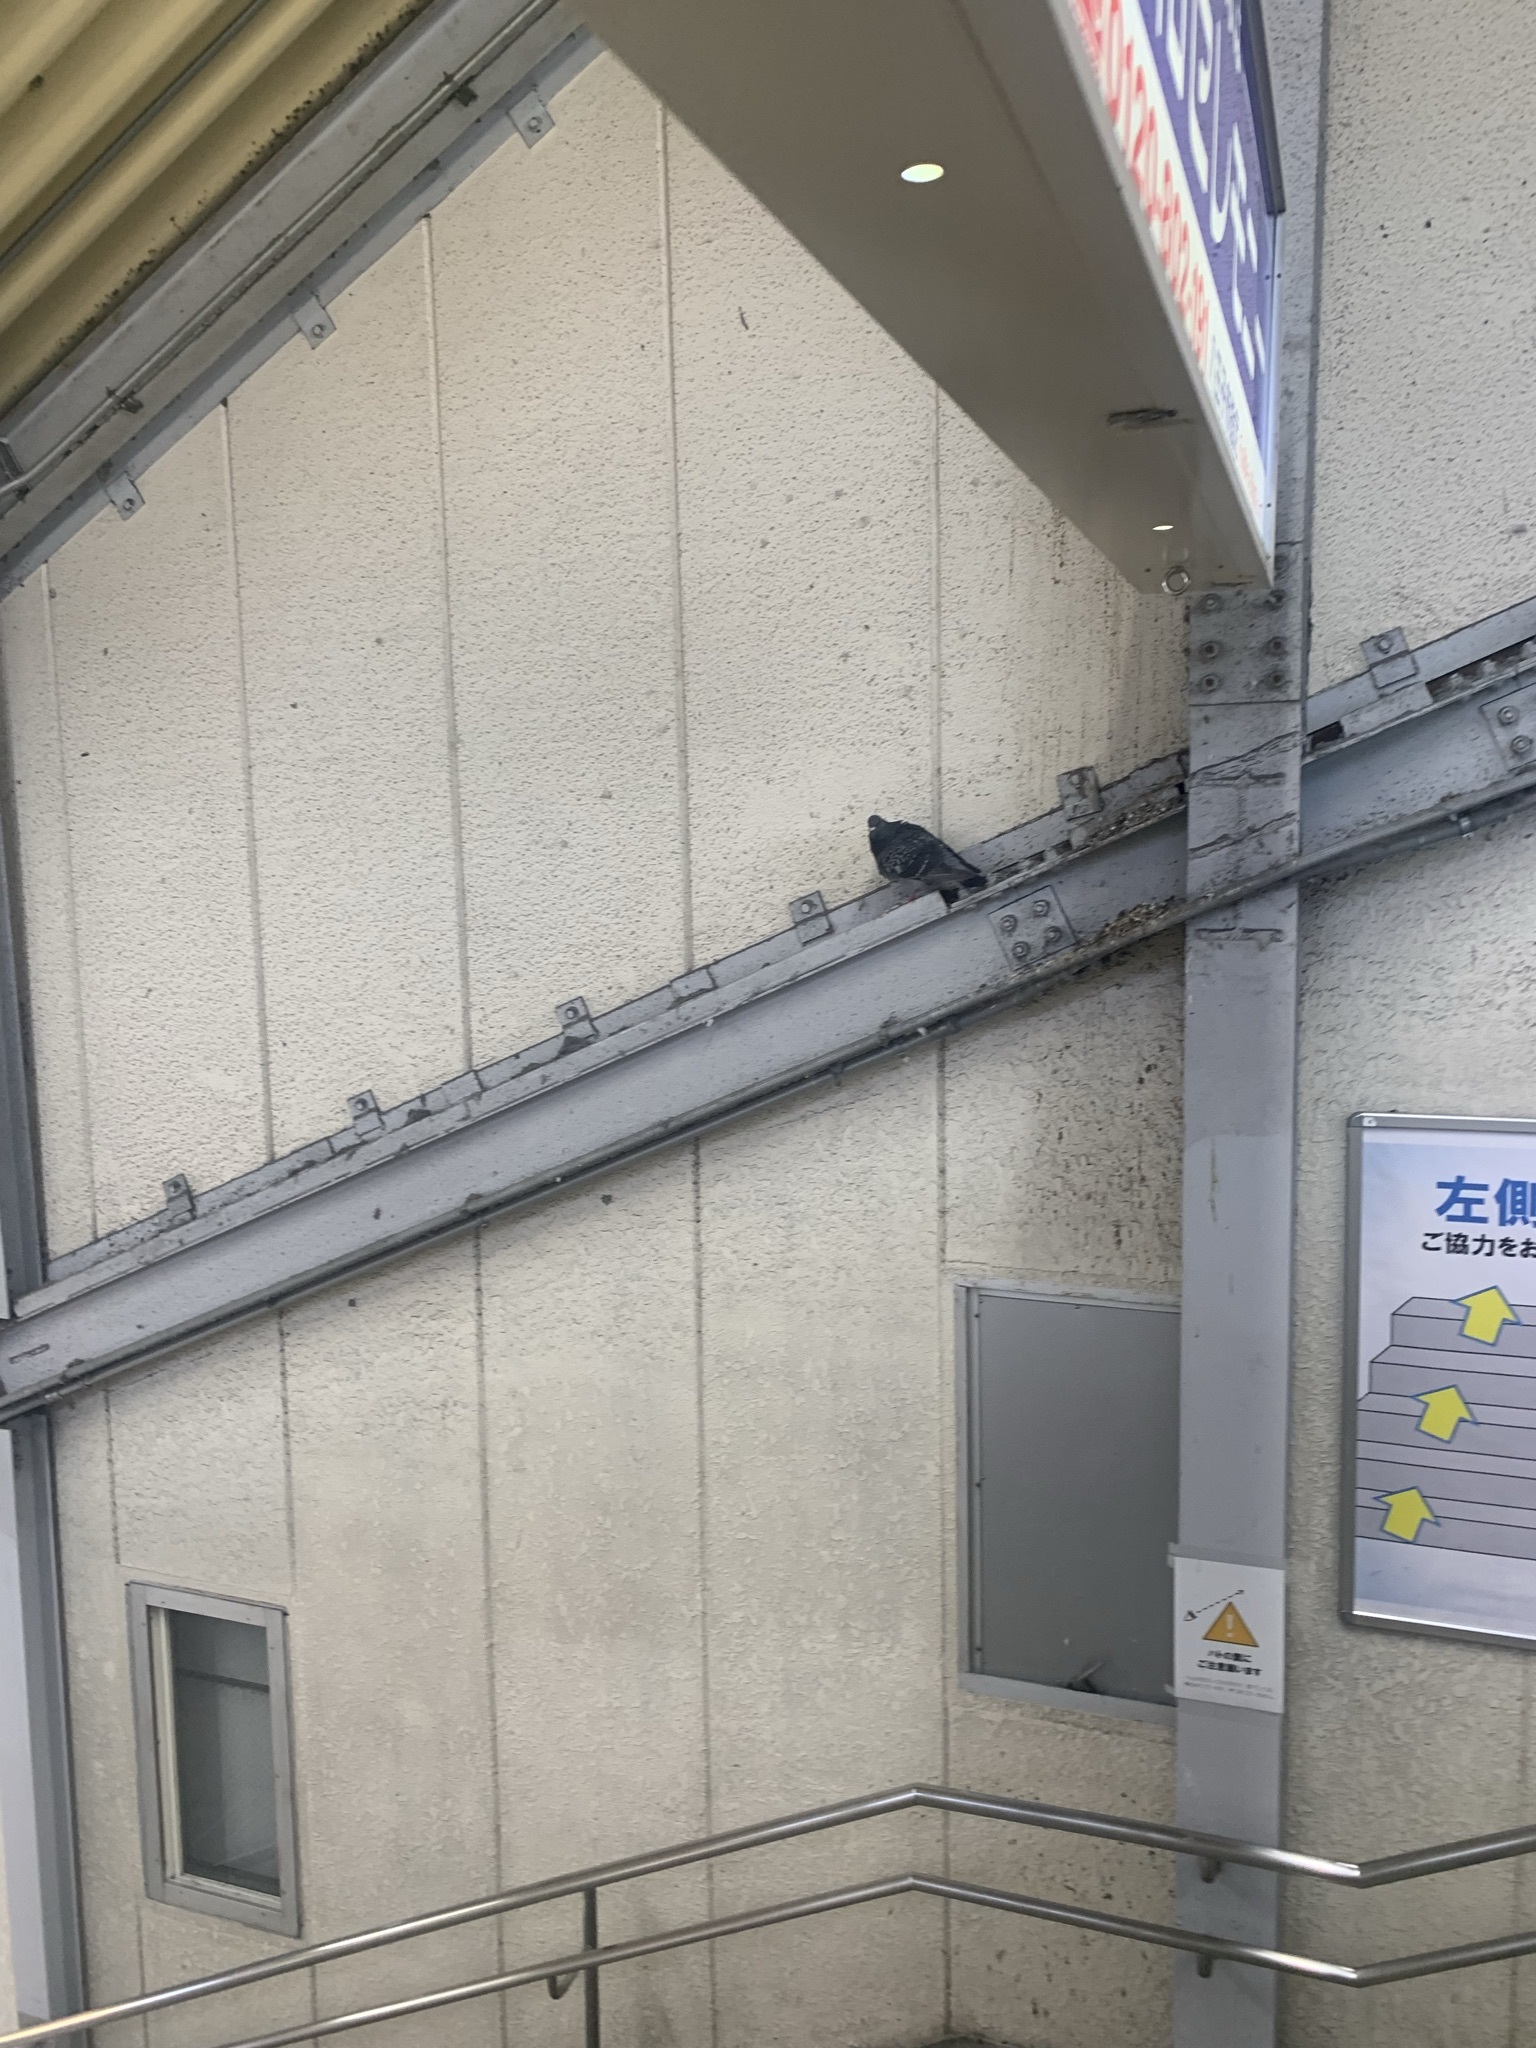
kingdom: Animalia
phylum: Chordata
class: Aves
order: Columbiformes
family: Columbidae
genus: Columba
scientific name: Columba livia
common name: Rock pigeon
